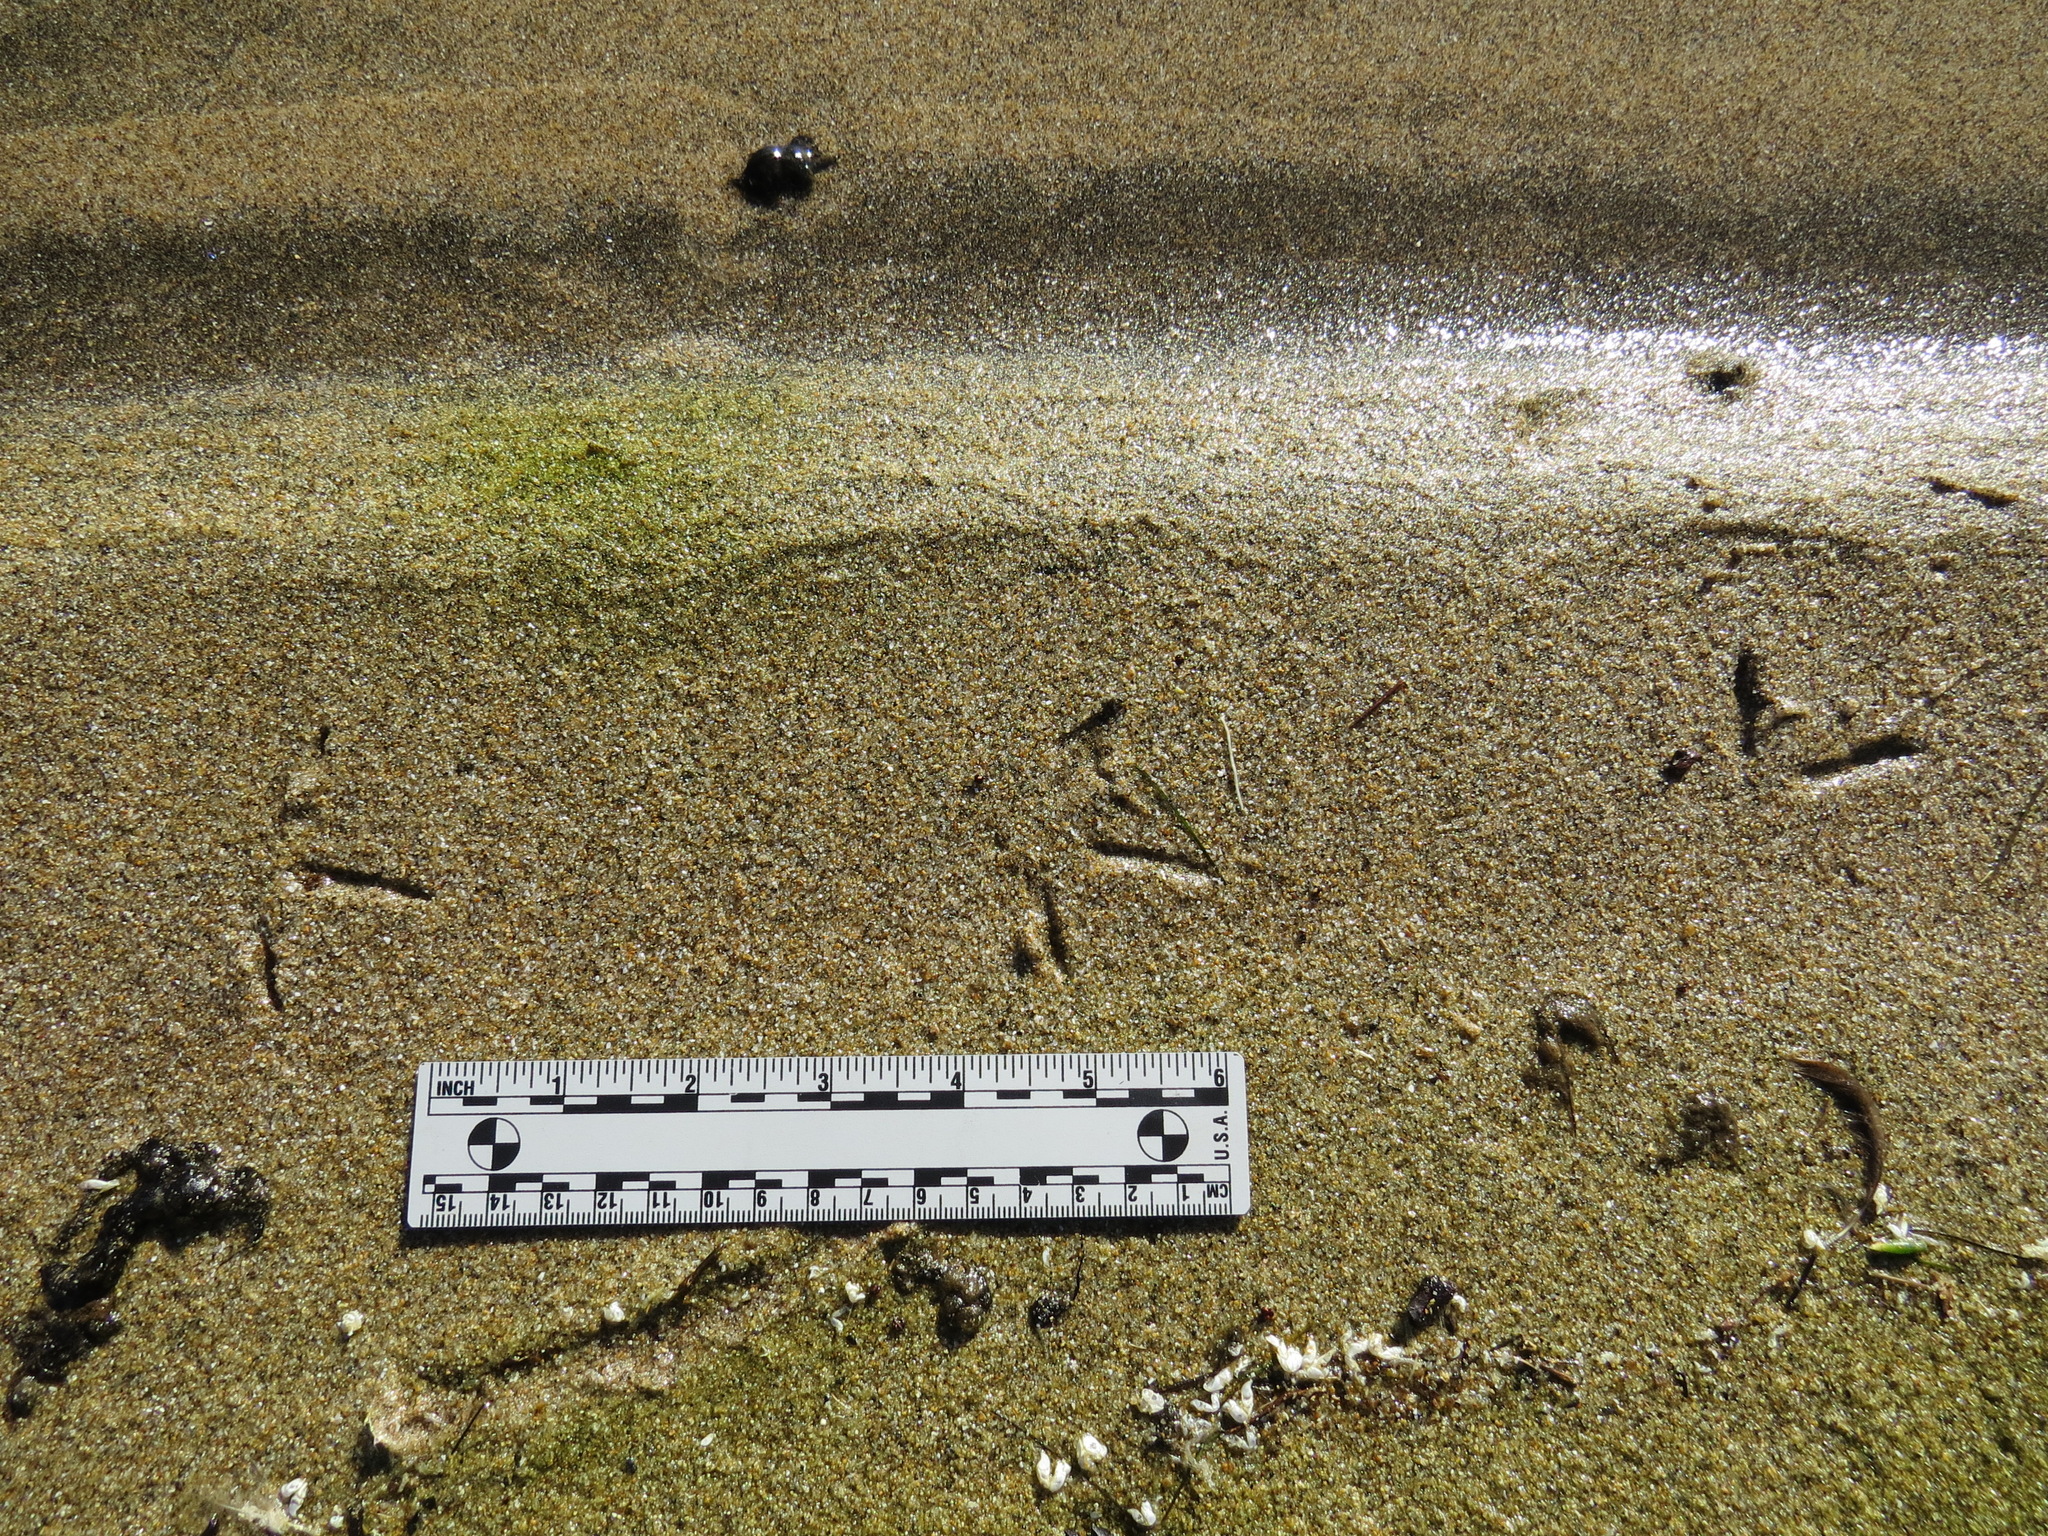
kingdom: Animalia
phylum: Chordata
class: Aves
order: Charadriiformes
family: Scolopacidae
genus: Tringa
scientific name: Tringa melanoleuca
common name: Greater yellowlegs
